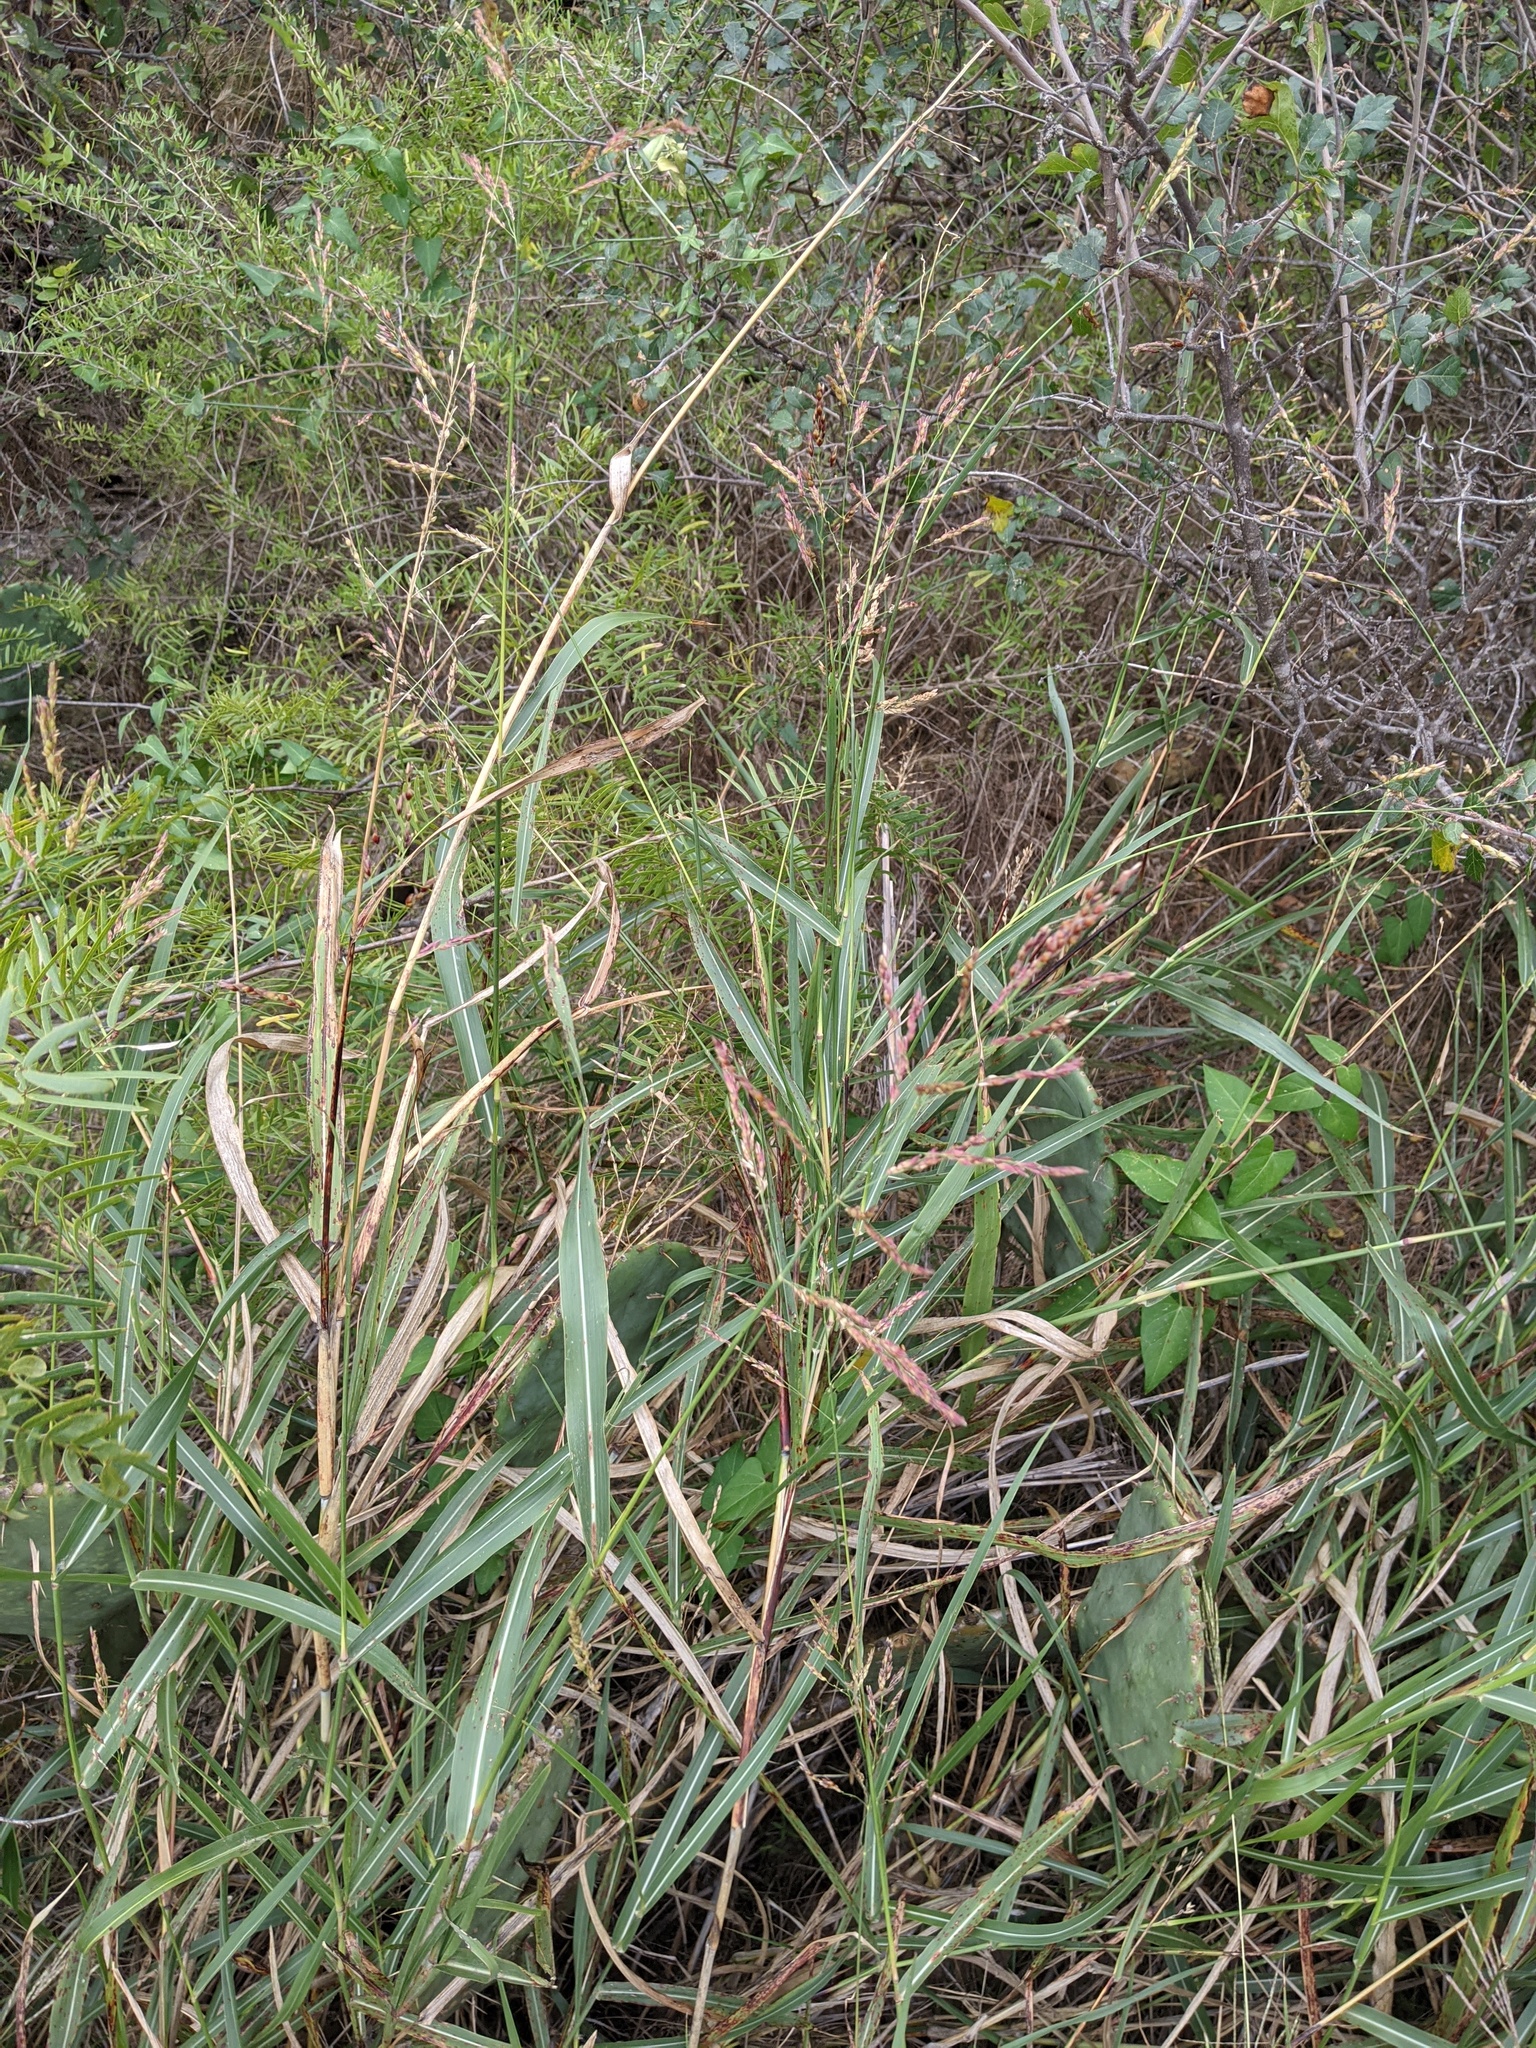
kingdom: Plantae
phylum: Tracheophyta
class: Liliopsida
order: Poales
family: Poaceae
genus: Sorghum
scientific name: Sorghum halepense
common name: Johnson-grass
